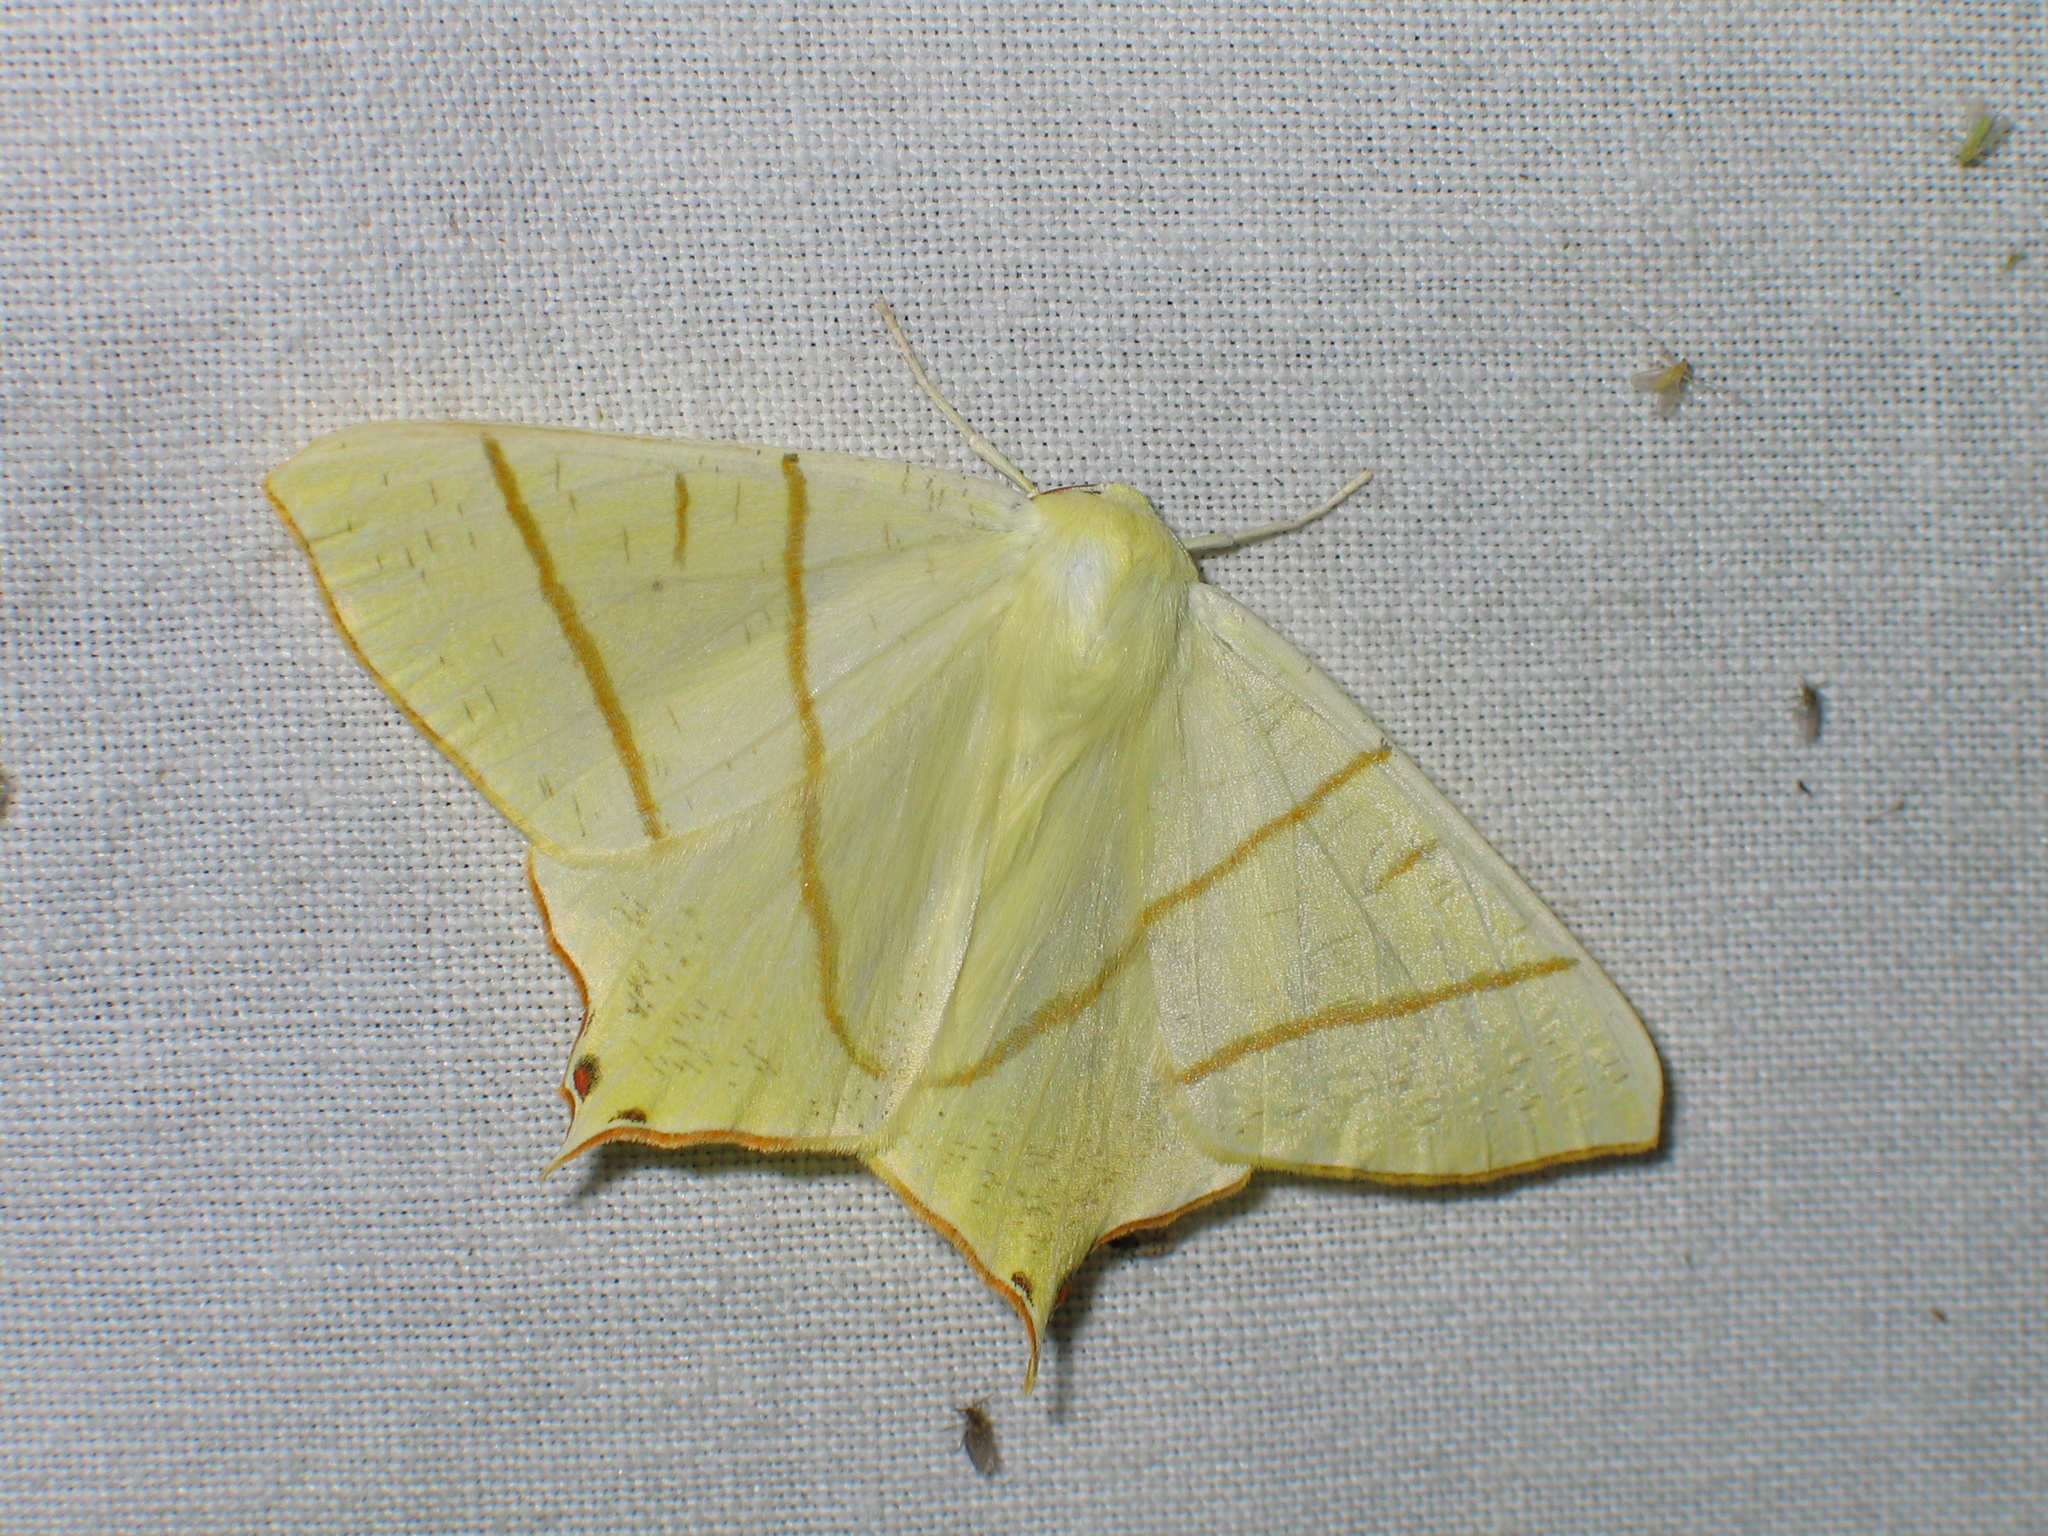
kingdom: Animalia
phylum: Arthropoda
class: Insecta
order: Lepidoptera
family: Geometridae
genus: Ourapteryx
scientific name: Ourapteryx sambucaria
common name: Swallow-tailed moth
